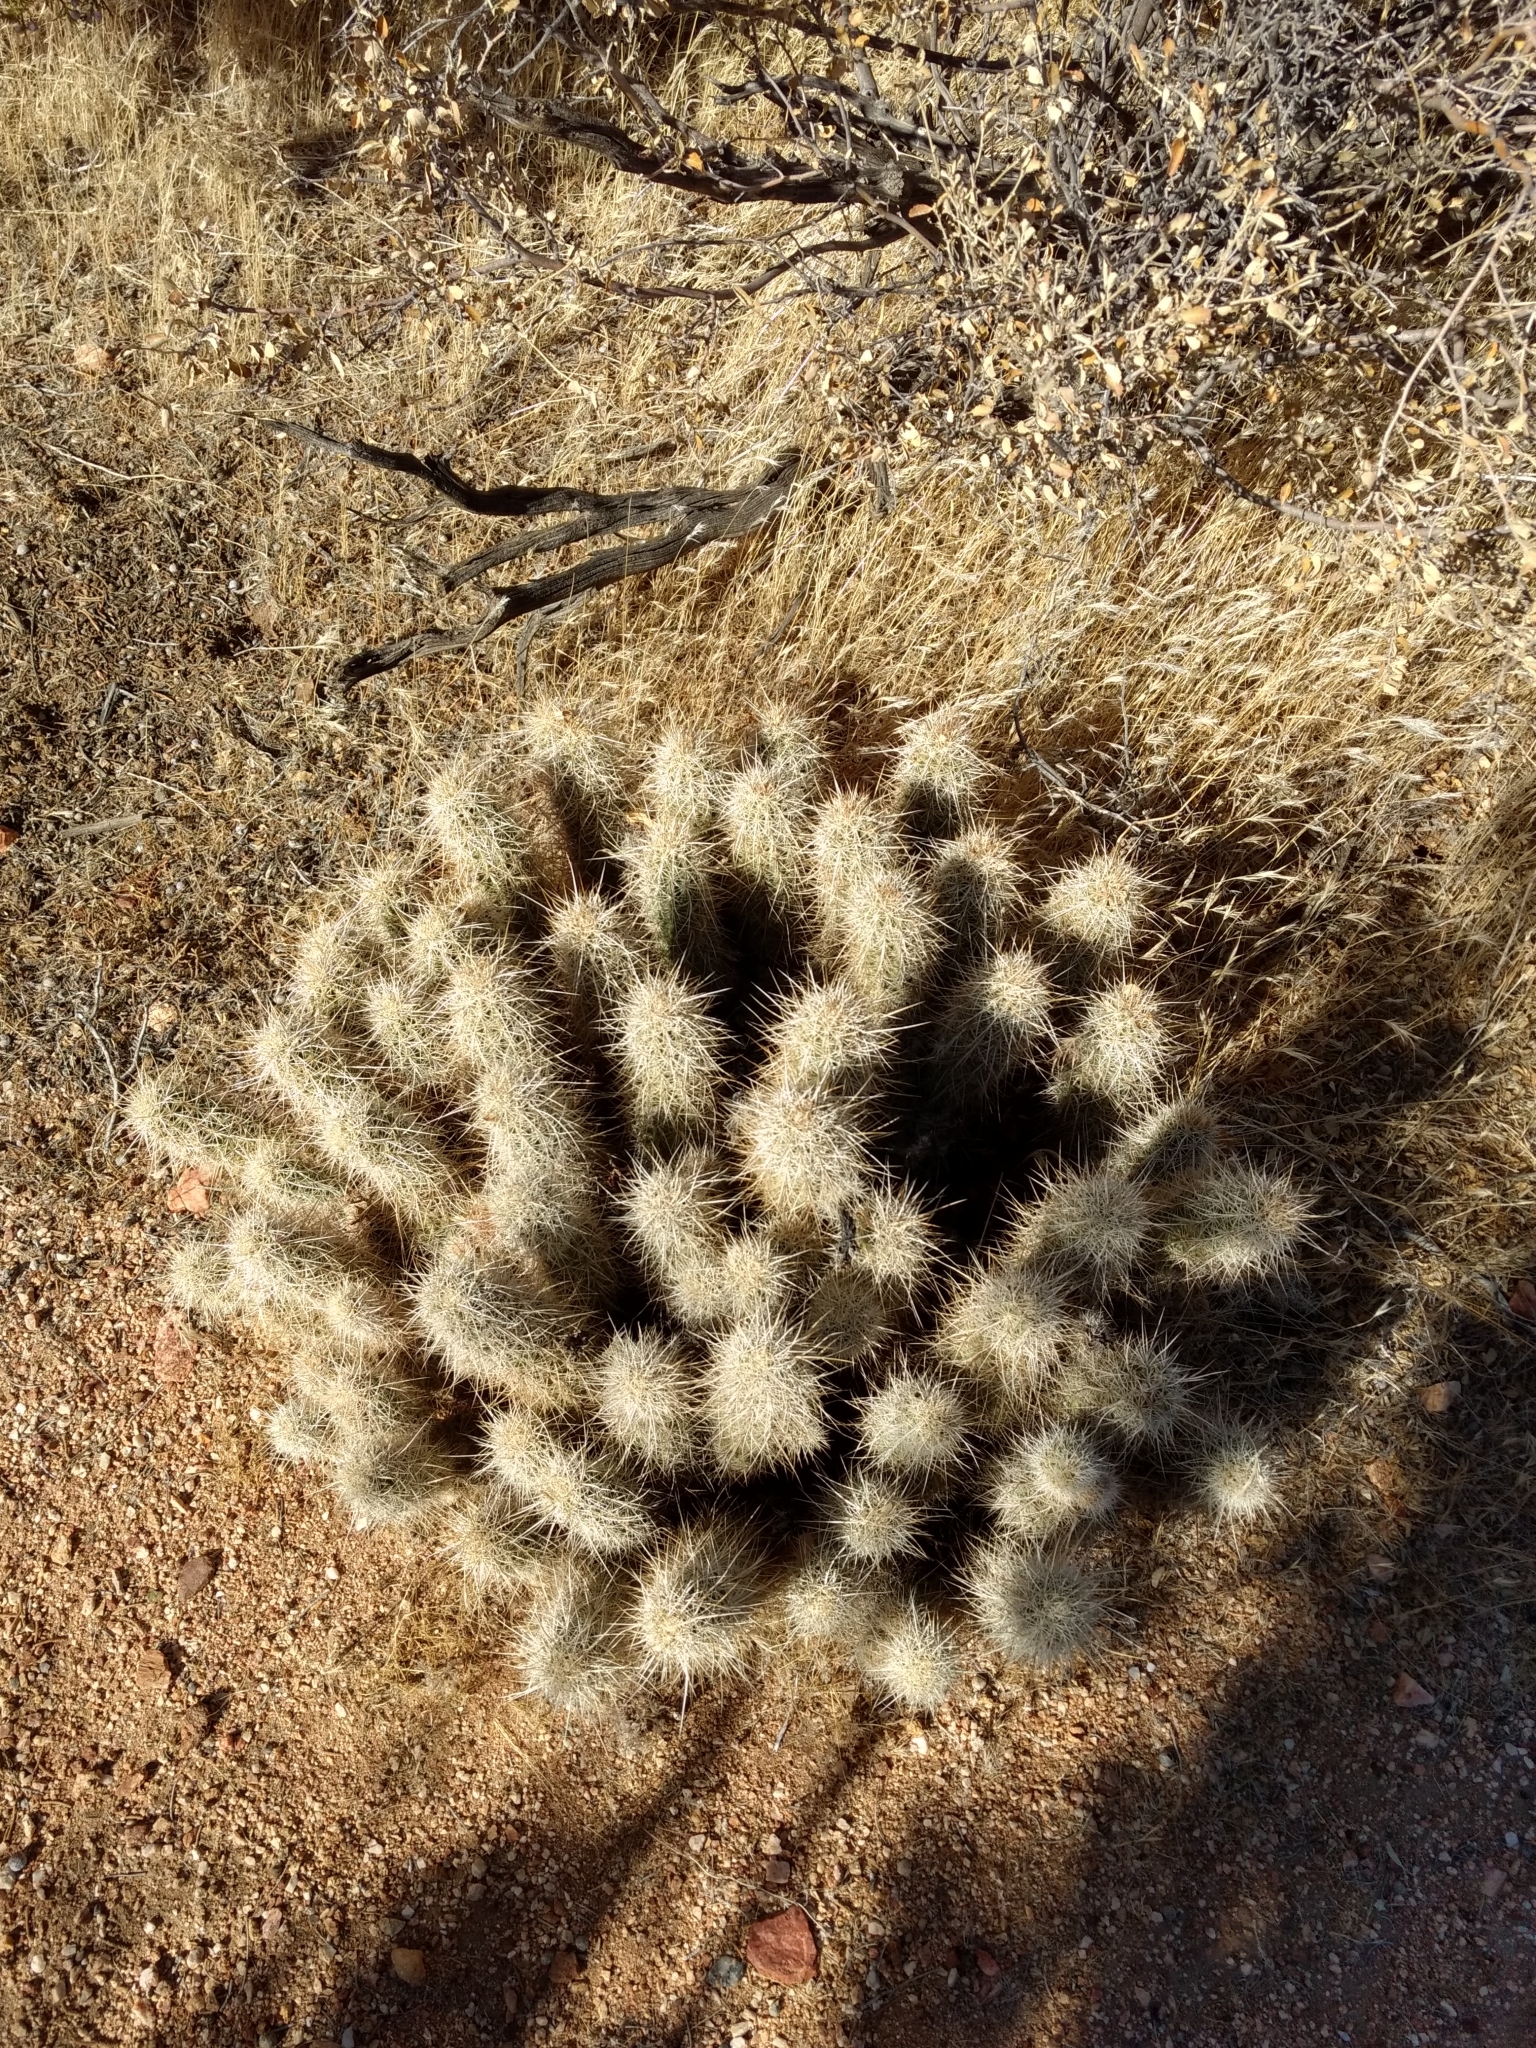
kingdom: Plantae
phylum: Tracheophyta
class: Magnoliopsida
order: Caryophyllales
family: Cactaceae
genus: Echinocereus
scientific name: Echinocereus engelmannii
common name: Engelmann's hedgehog cactus
